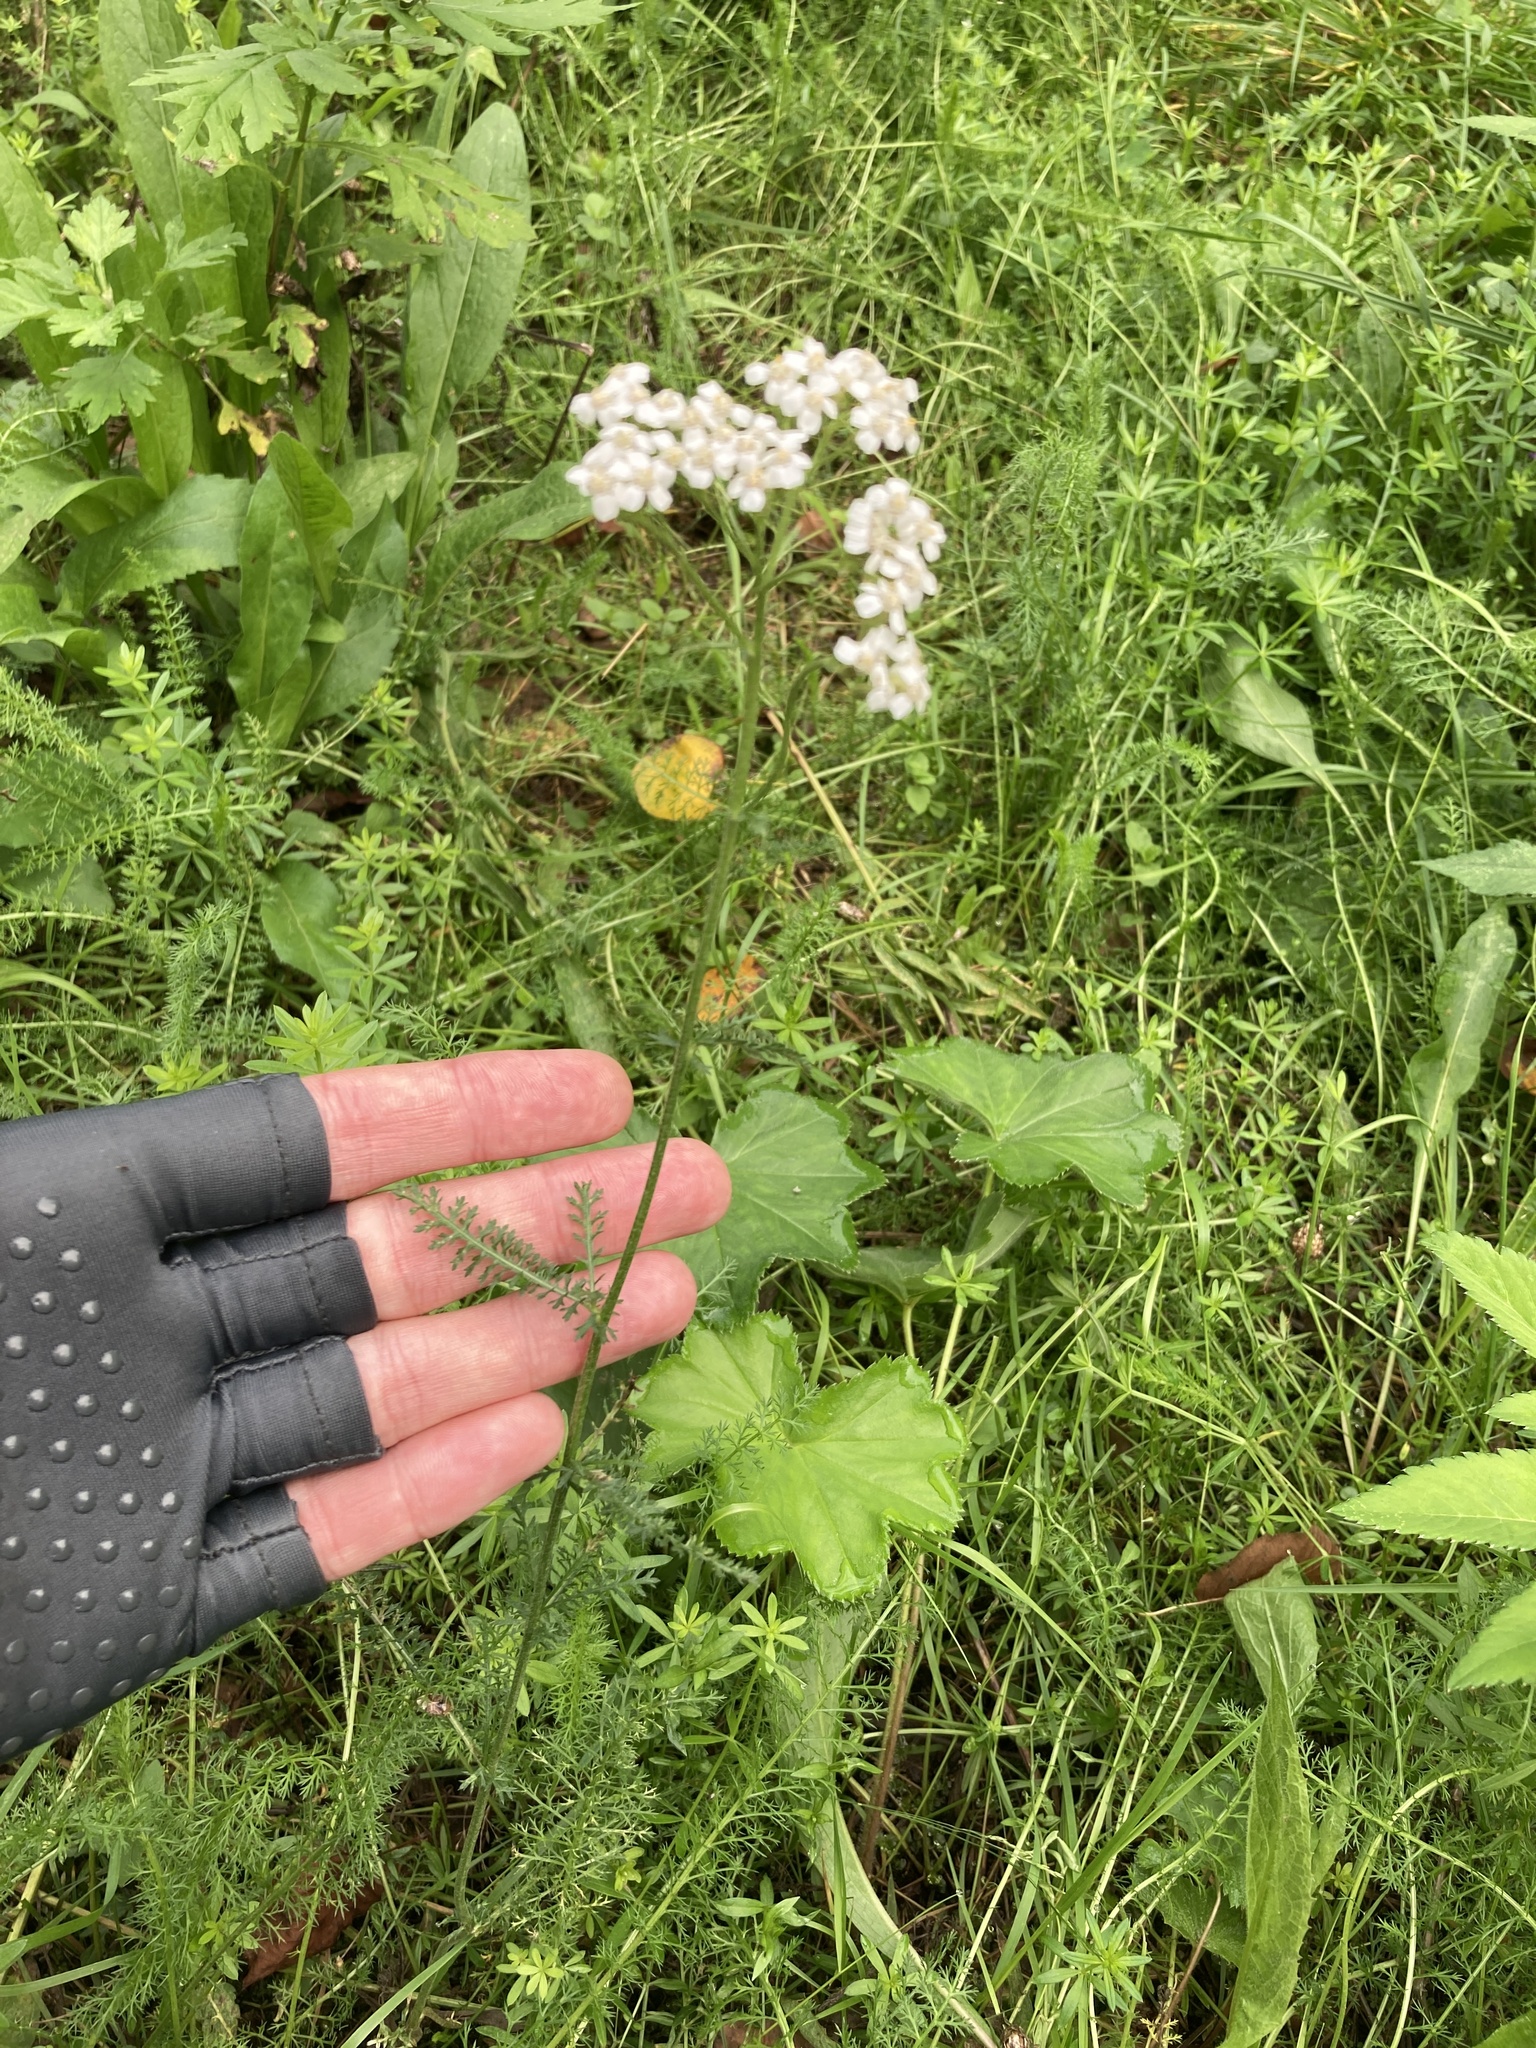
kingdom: Plantae
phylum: Tracheophyta
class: Magnoliopsida
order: Asterales
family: Asteraceae
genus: Achillea
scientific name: Achillea millefolium
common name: Yarrow
